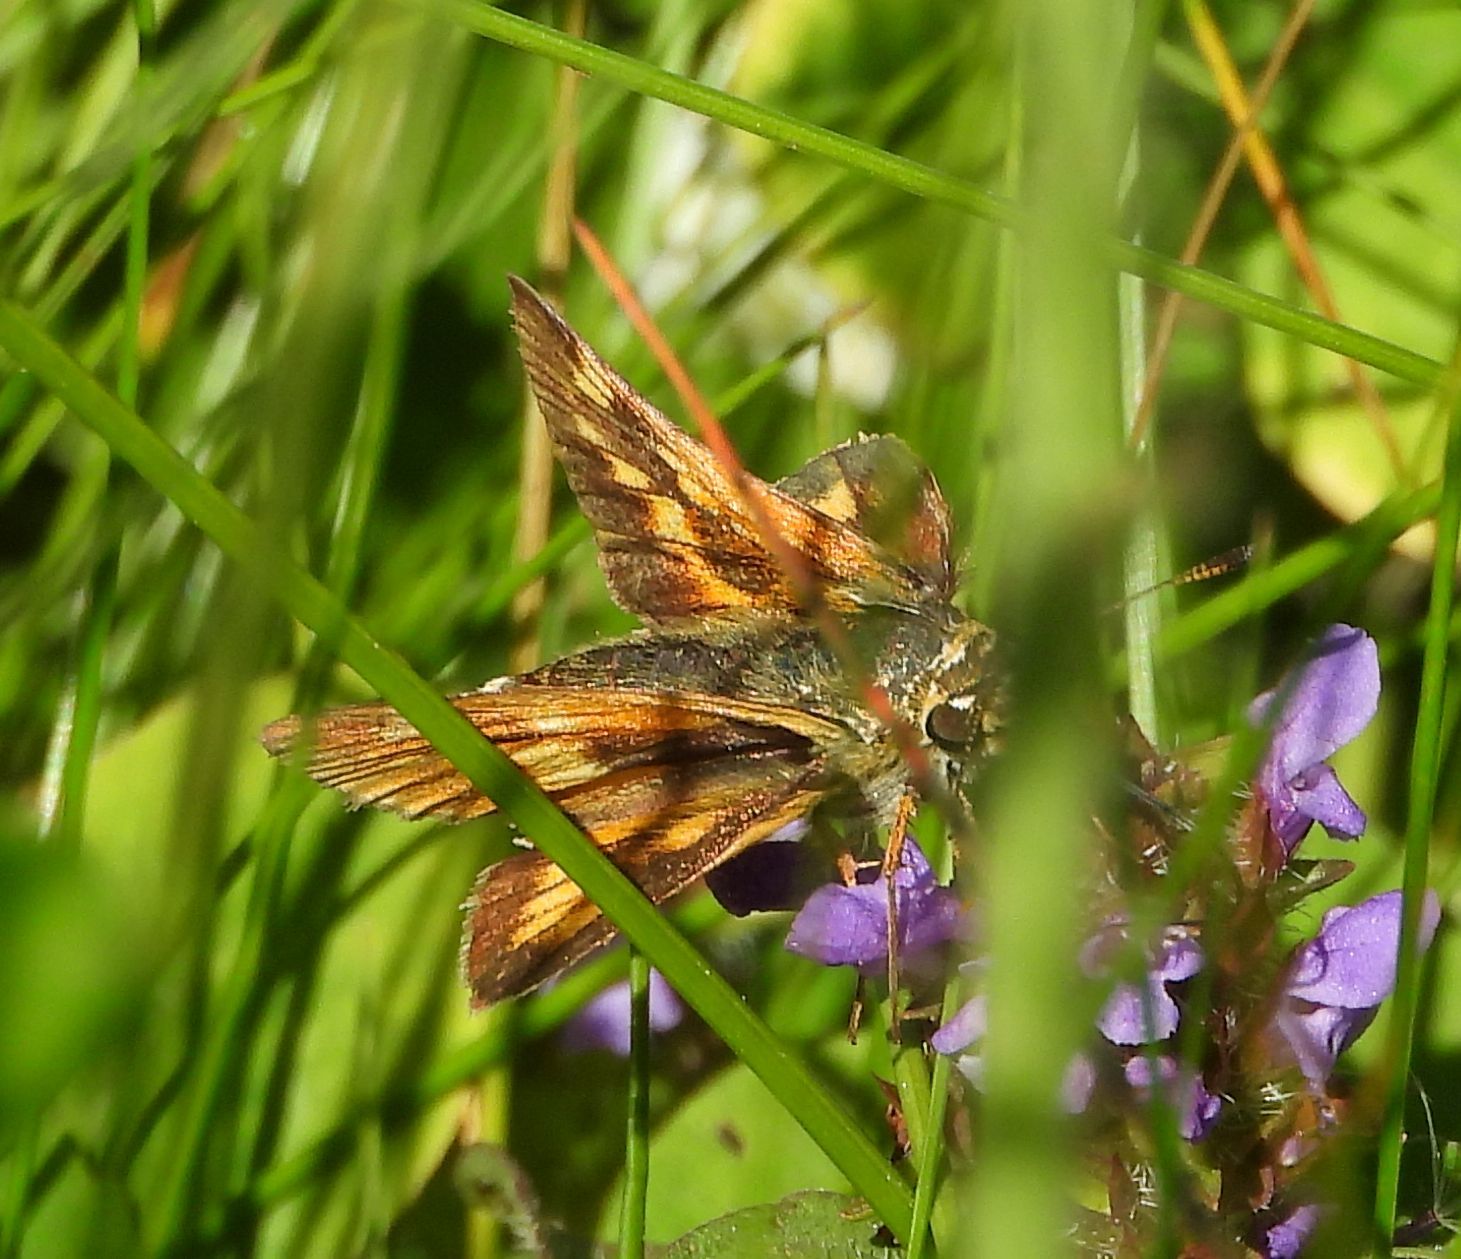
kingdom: Animalia
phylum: Arthropoda
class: Insecta
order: Lepidoptera
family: Hesperiidae
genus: Polites
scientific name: Polites mystic
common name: Long dash
